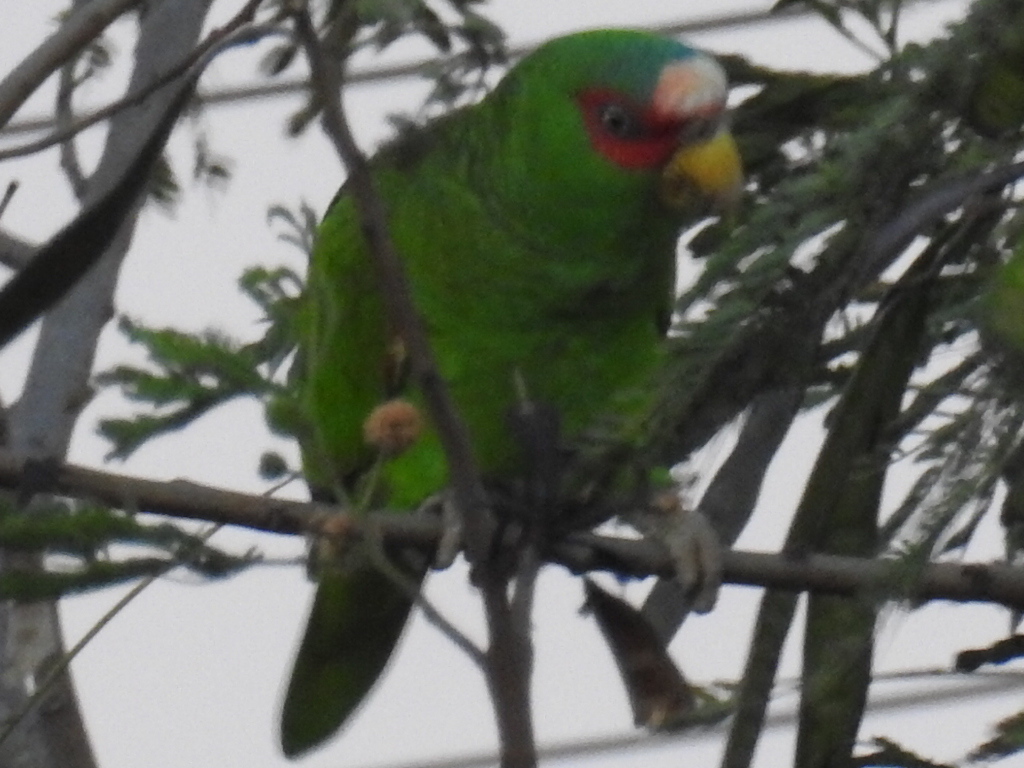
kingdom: Animalia
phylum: Chordata
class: Aves
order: Psittaciformes
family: Psittacidae
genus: Amazona
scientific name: Amazona albifrons
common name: White-fronted amazon
